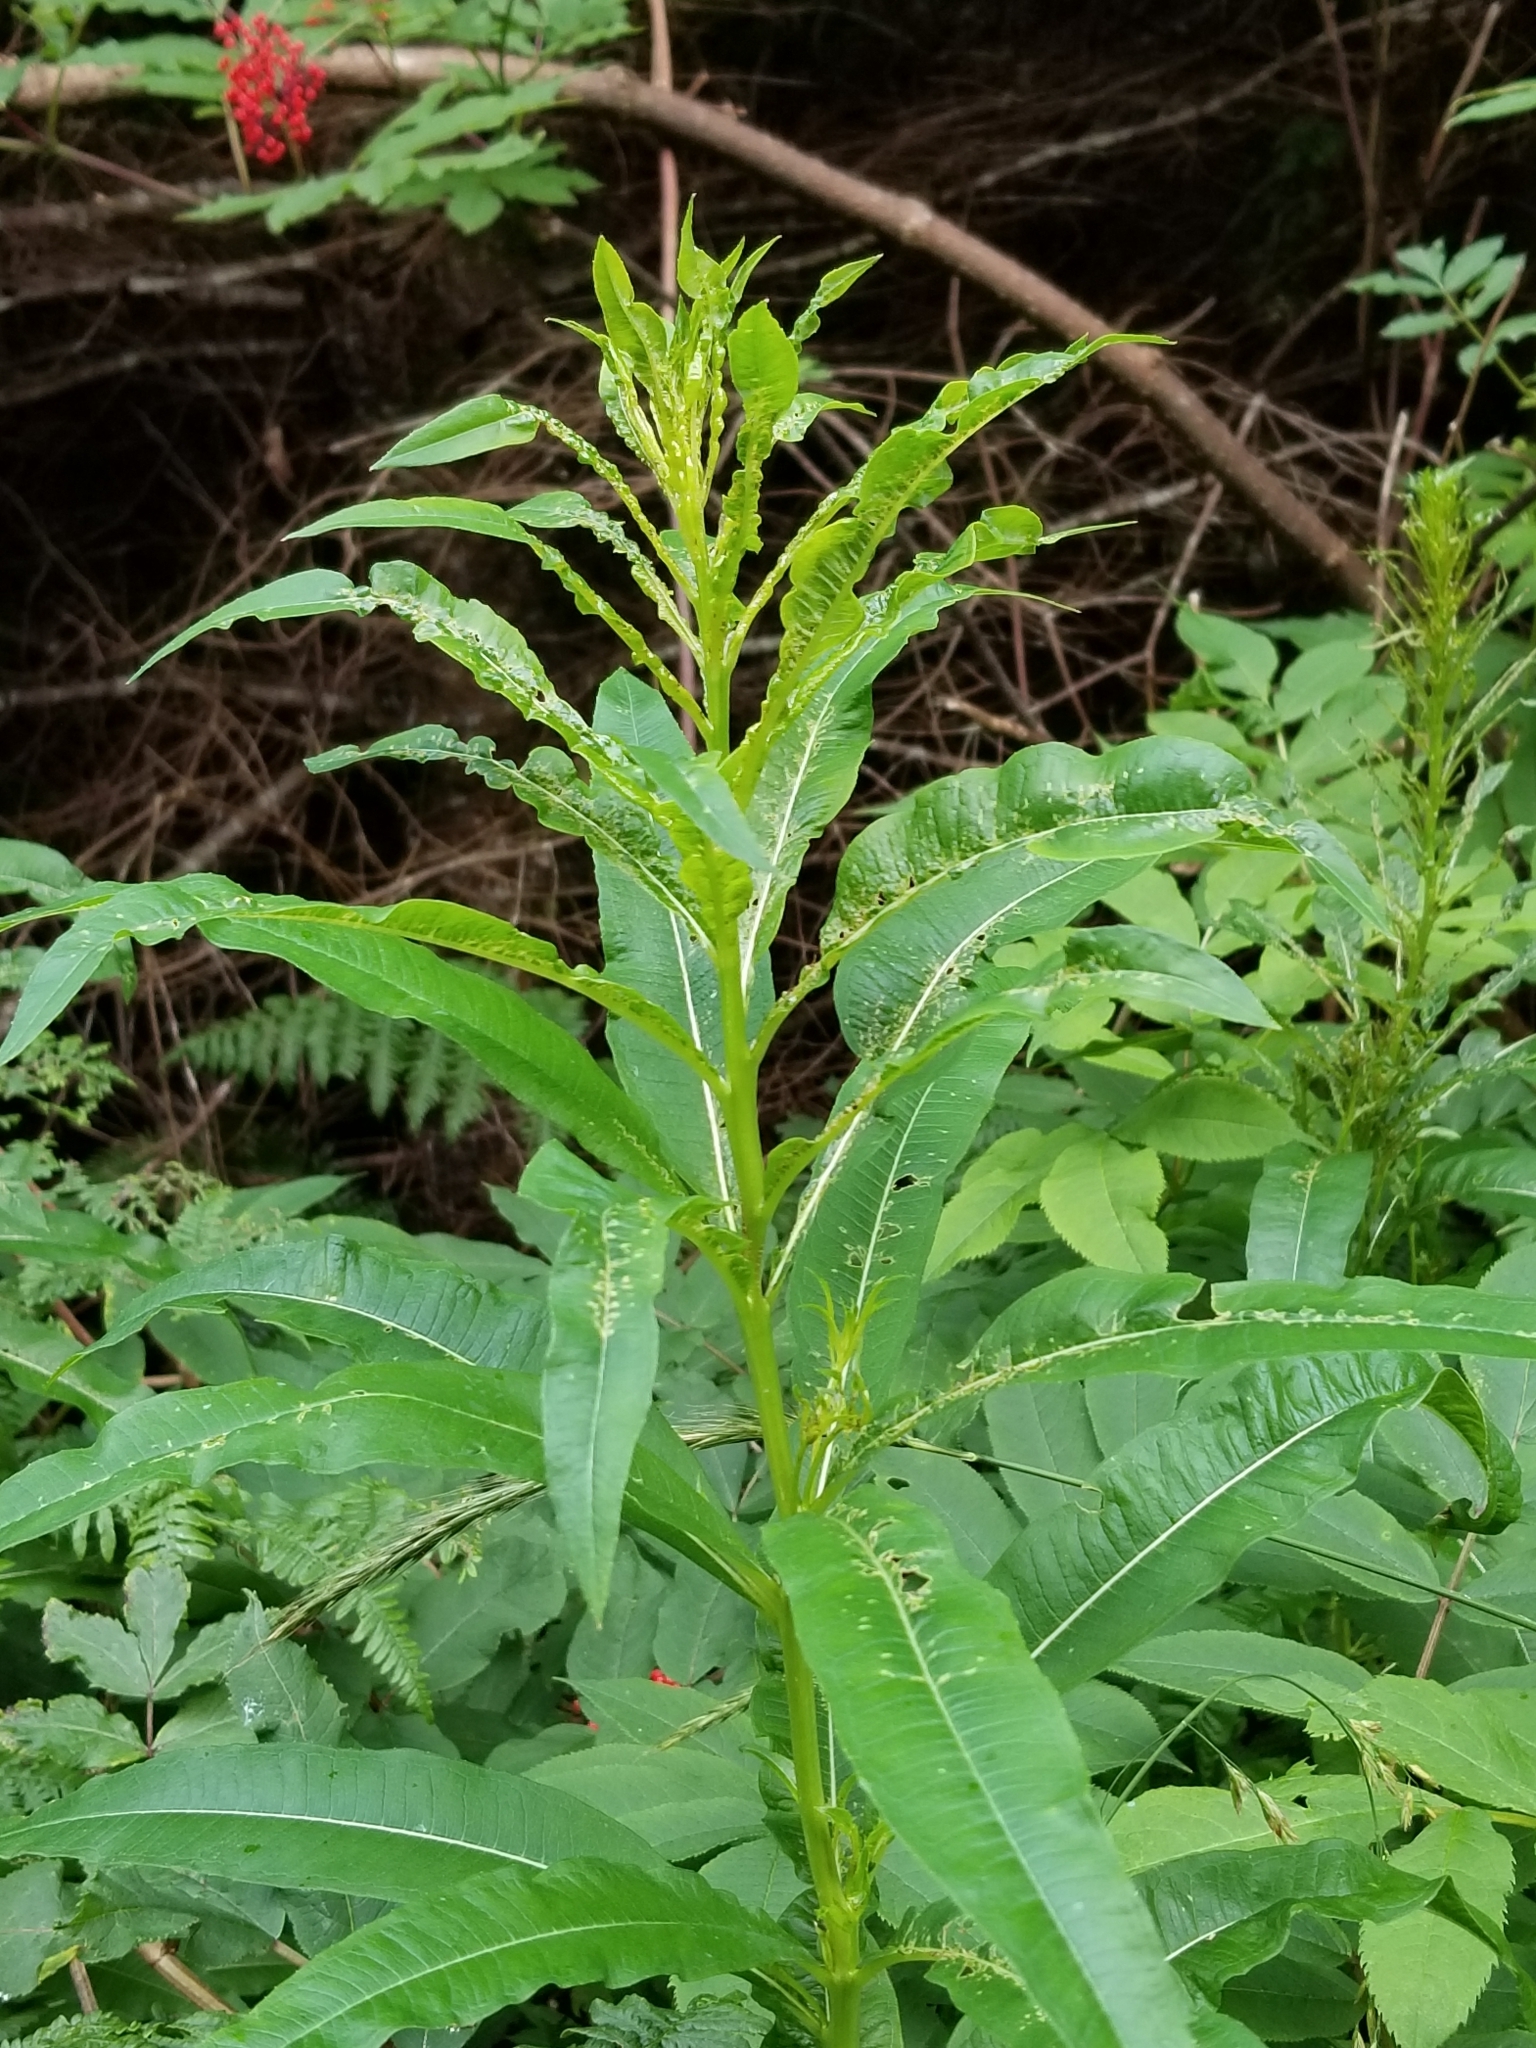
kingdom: Plantae
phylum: Tracheophyta
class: Magnoliopsida
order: Myrtales
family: Onagraceae
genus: Chamaenerion
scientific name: Chamaenerion angustifolium
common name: Fireweed
